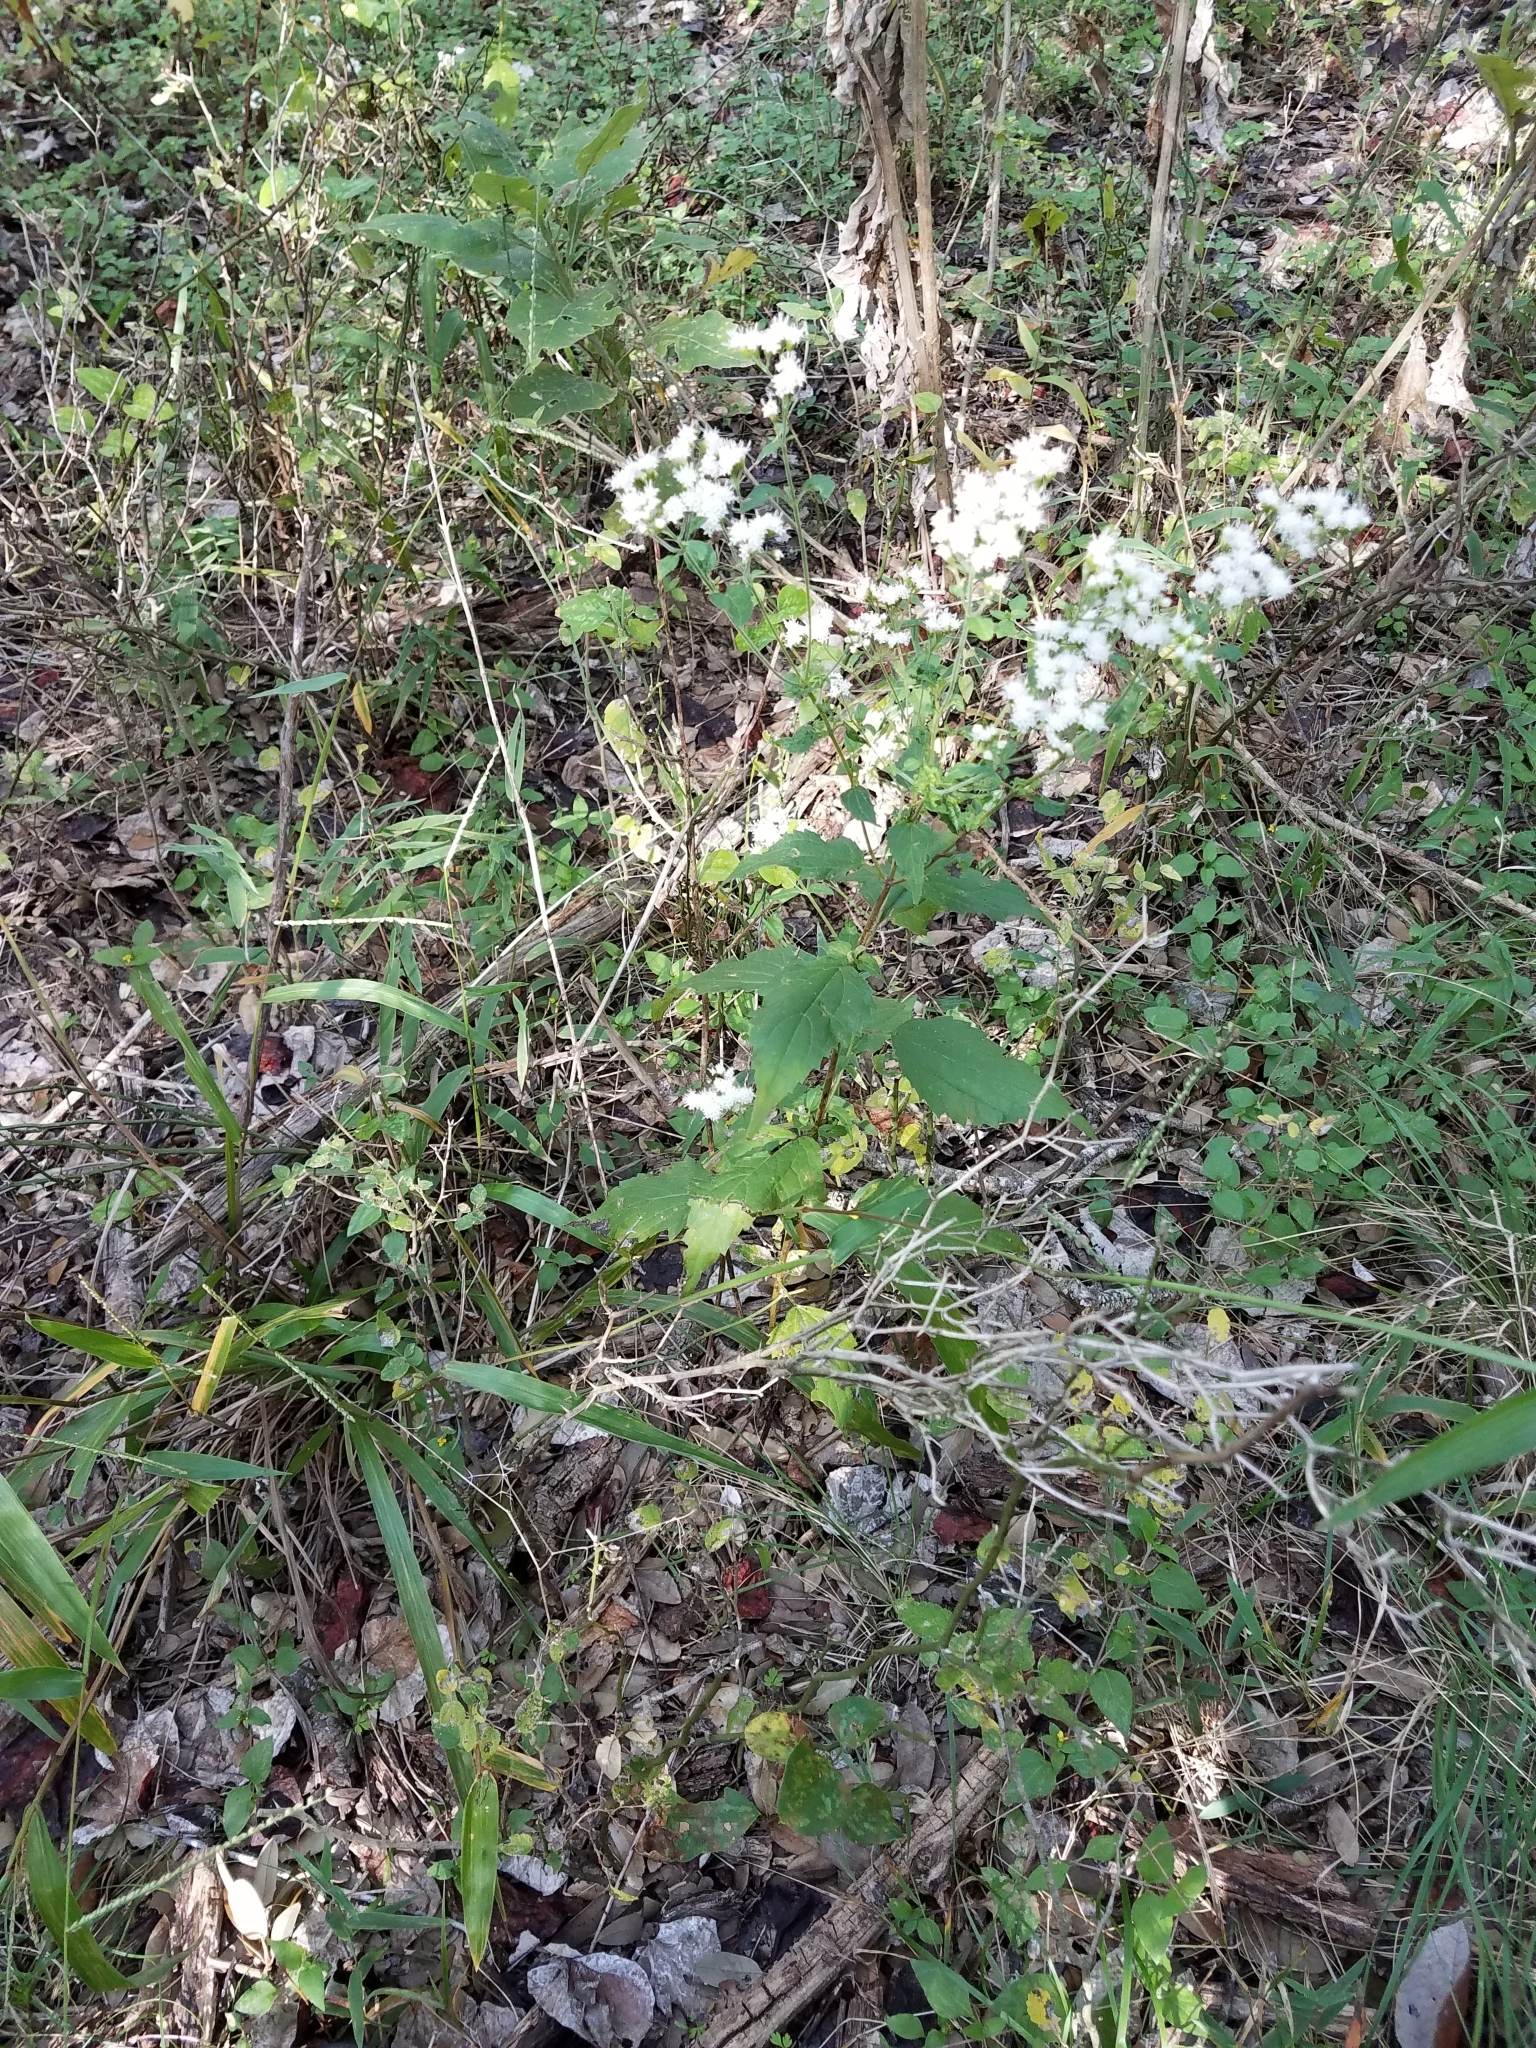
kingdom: Plantae
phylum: Tracheophyta
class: Magnoliopsida
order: Asterales
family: Asteraceae
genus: Ageratina
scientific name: Ageratina altissima
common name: White snakeroot
